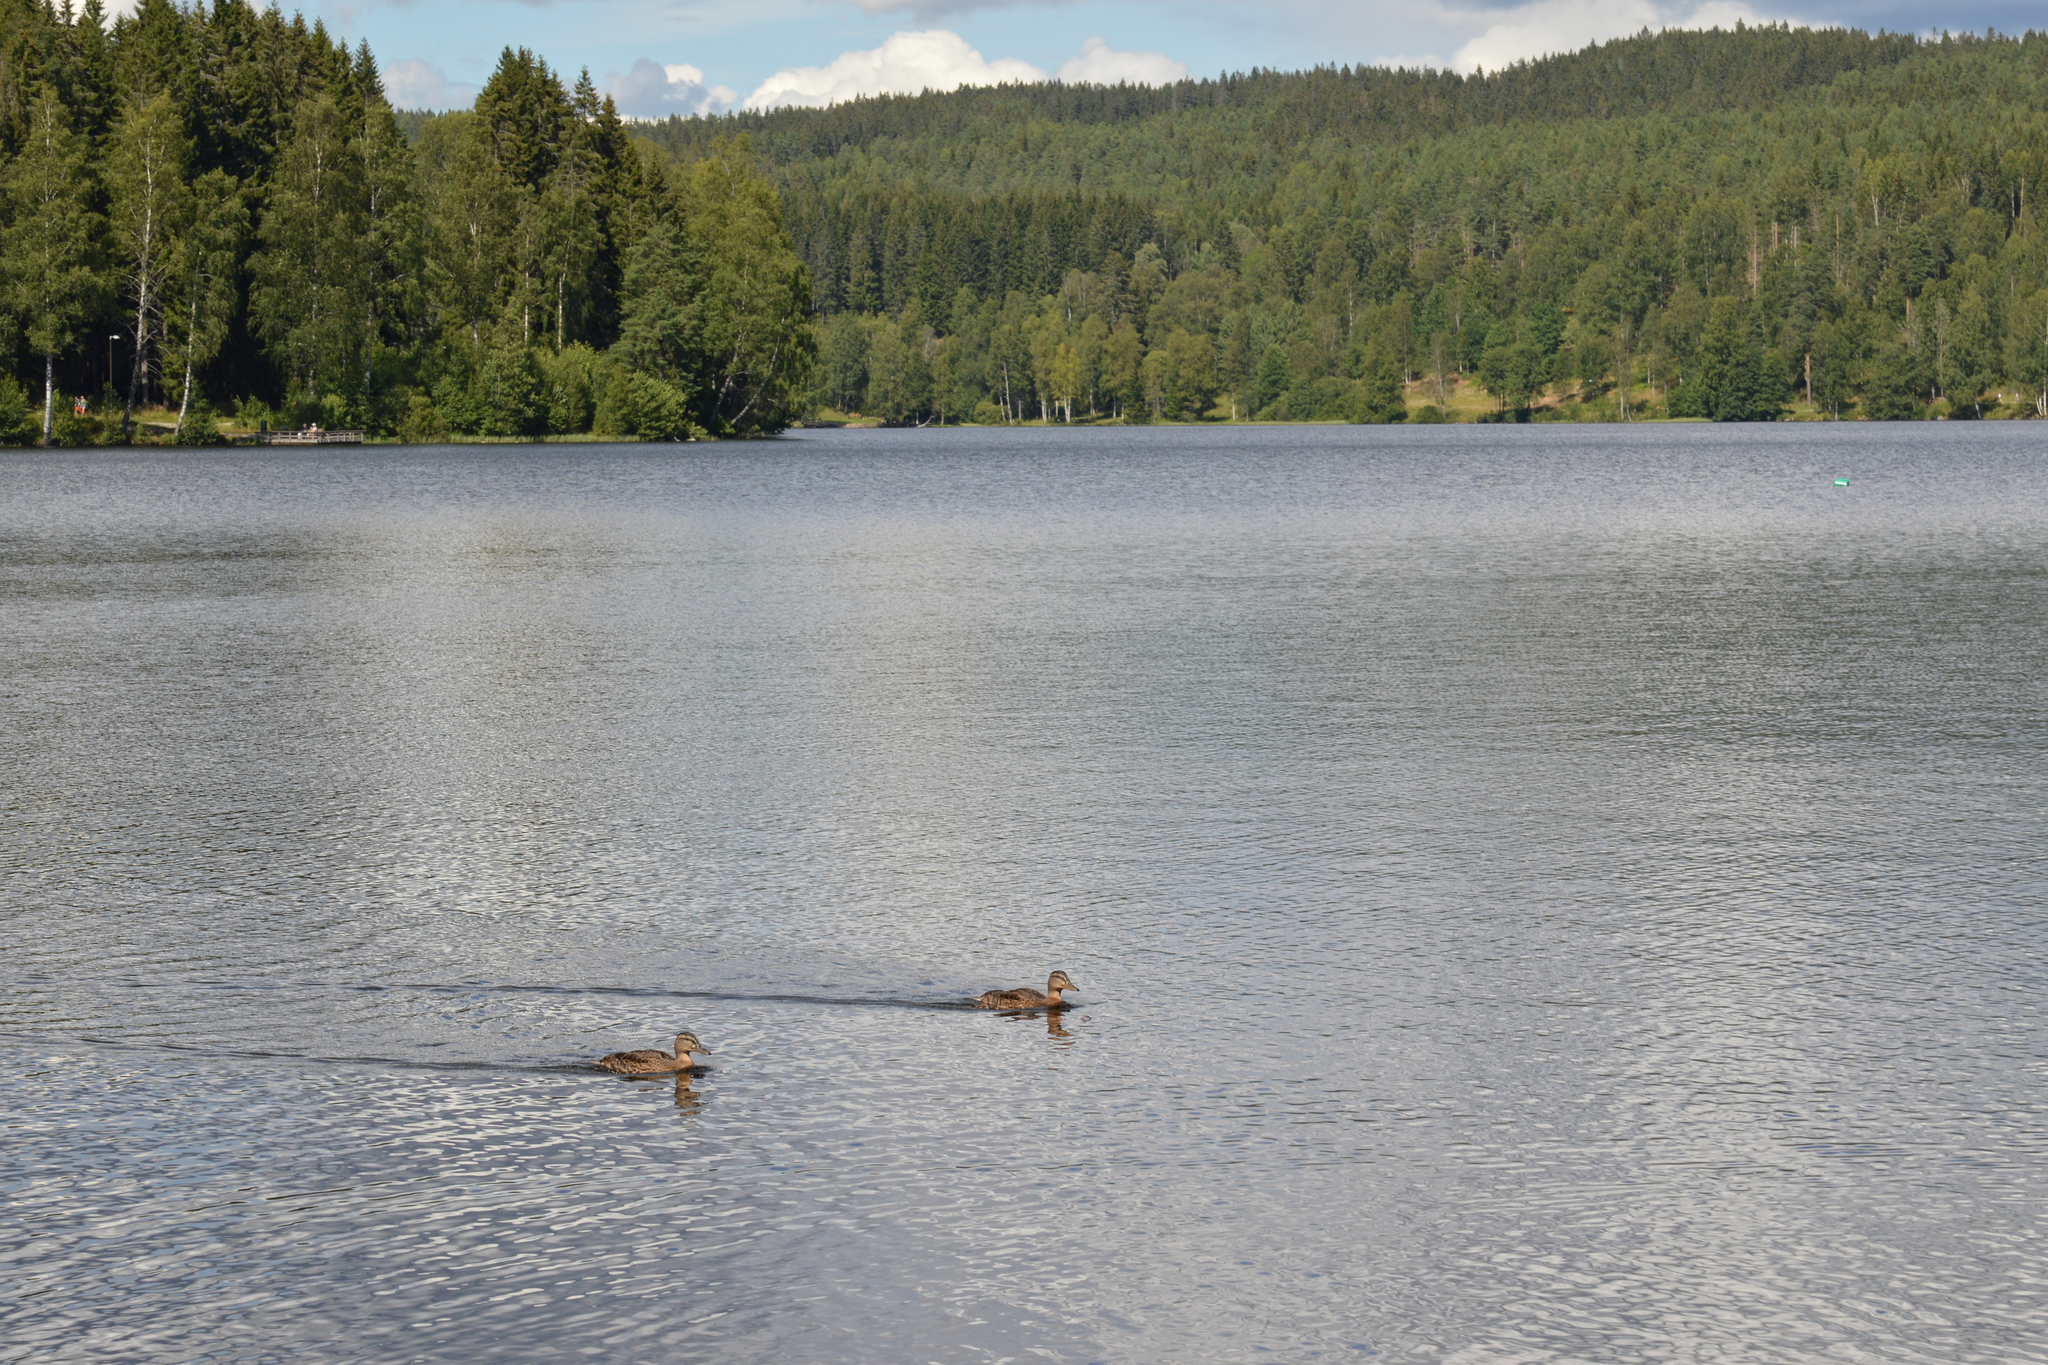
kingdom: Animalia
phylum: Chordata
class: Aves
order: Anseriformes
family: Anatidae
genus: Anas
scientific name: Anas platyrhynchos
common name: Mallard
